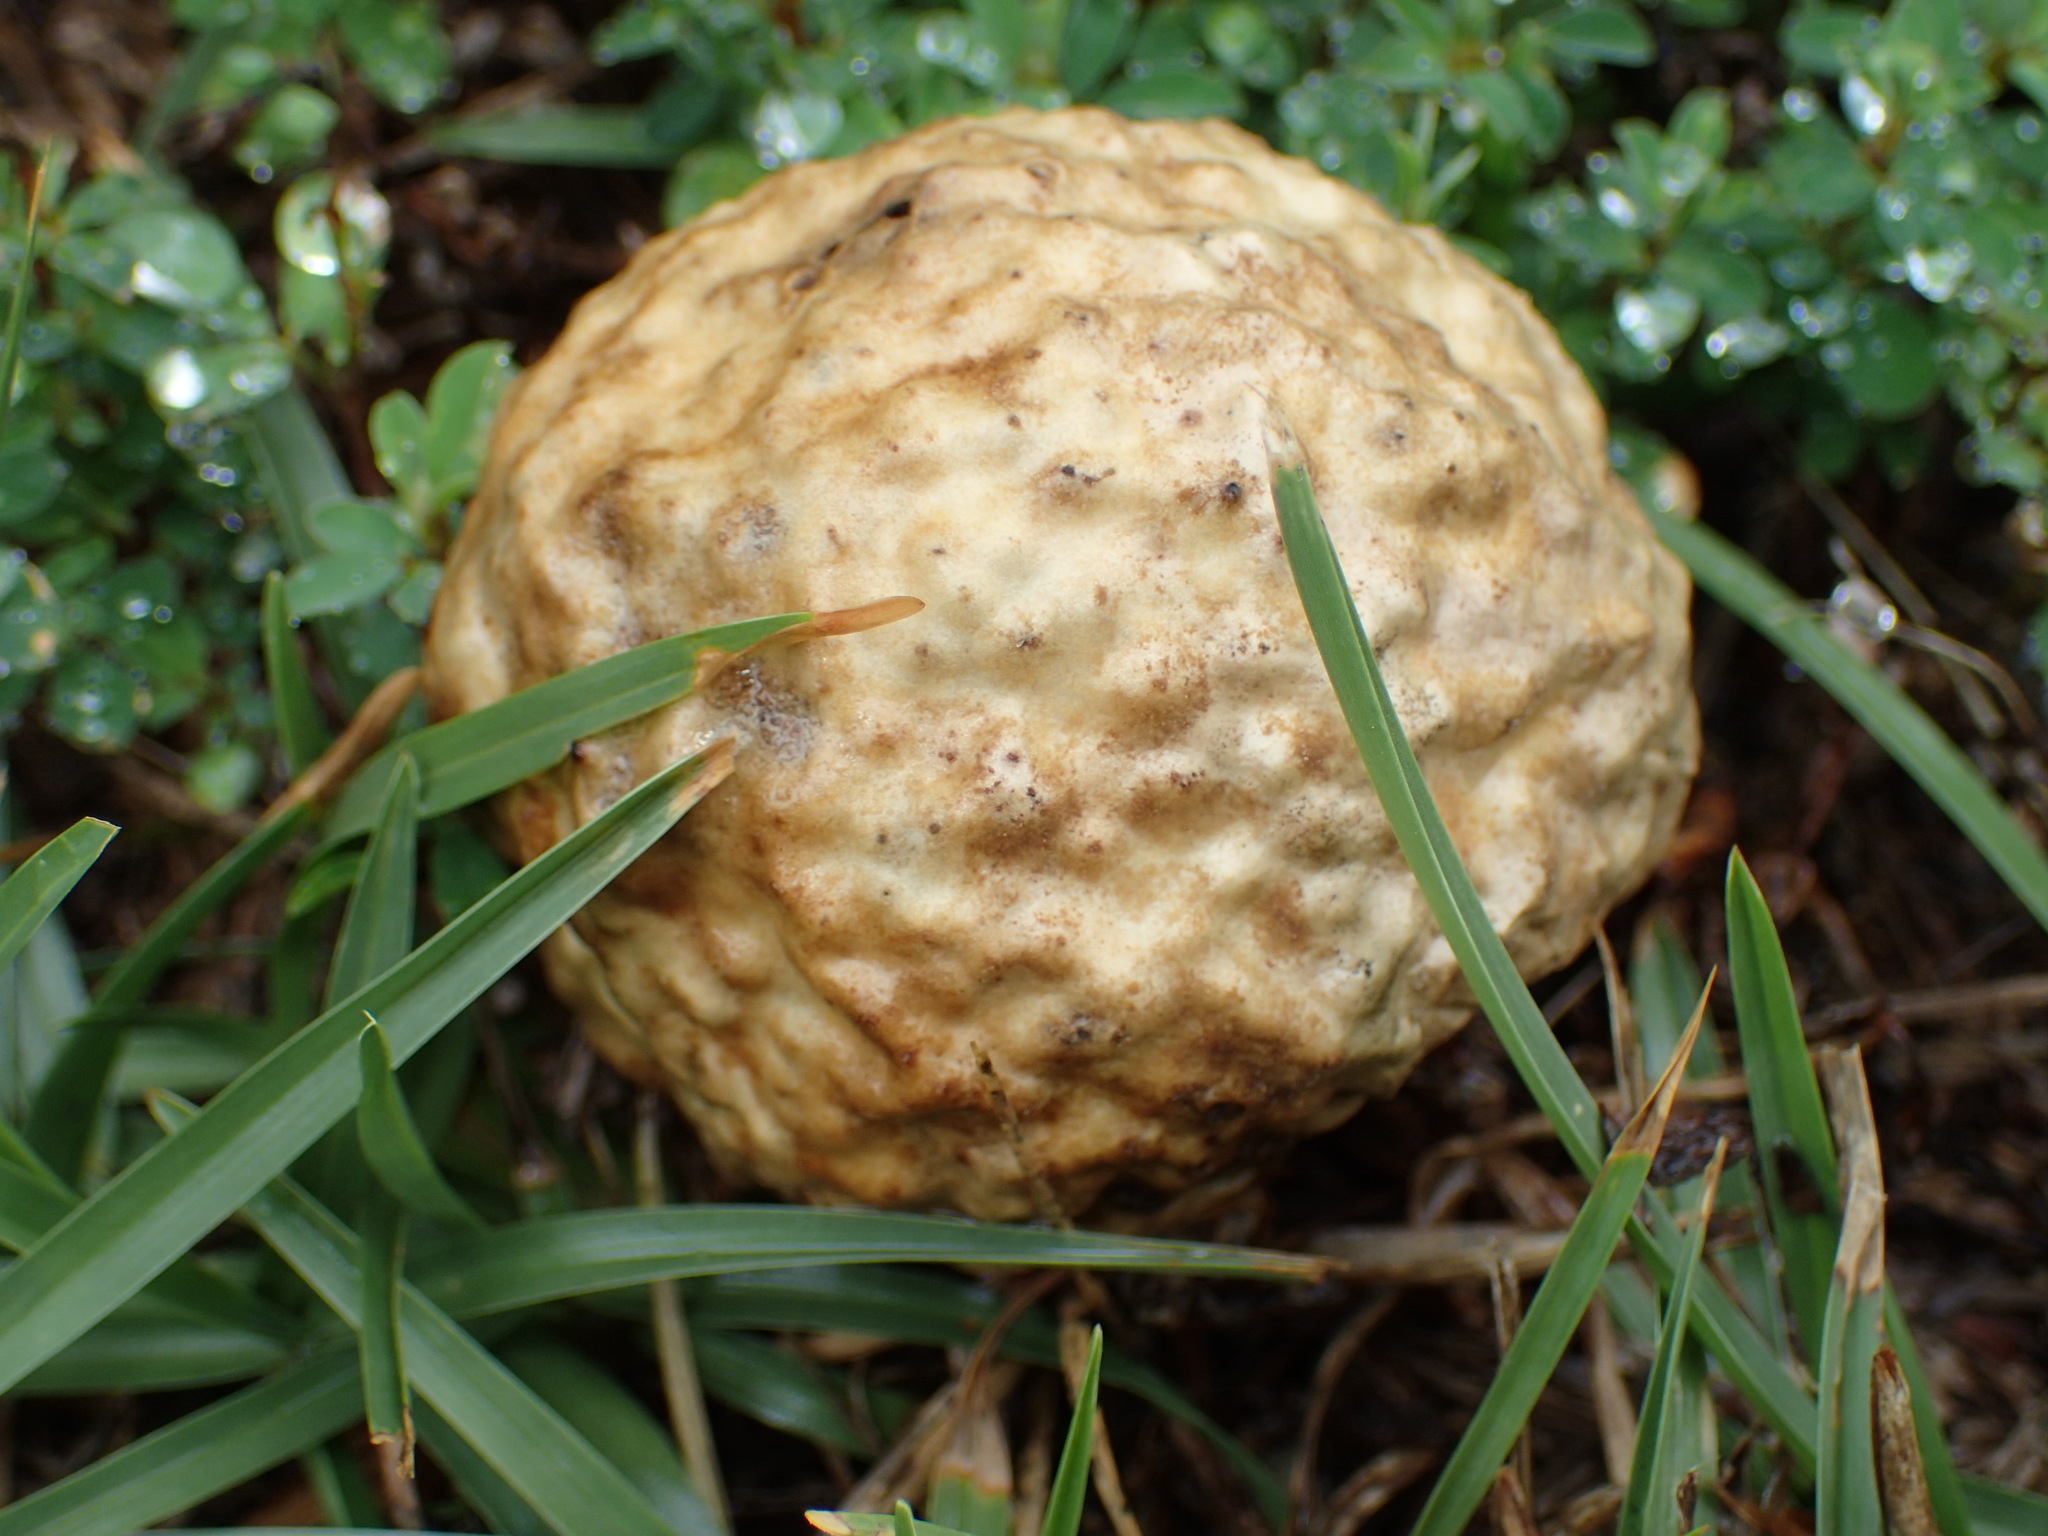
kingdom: Animalia
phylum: Arthropoda
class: Insecta
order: Hymenoptera
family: Cynipidae
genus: Amphibolips
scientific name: Amphibolips
